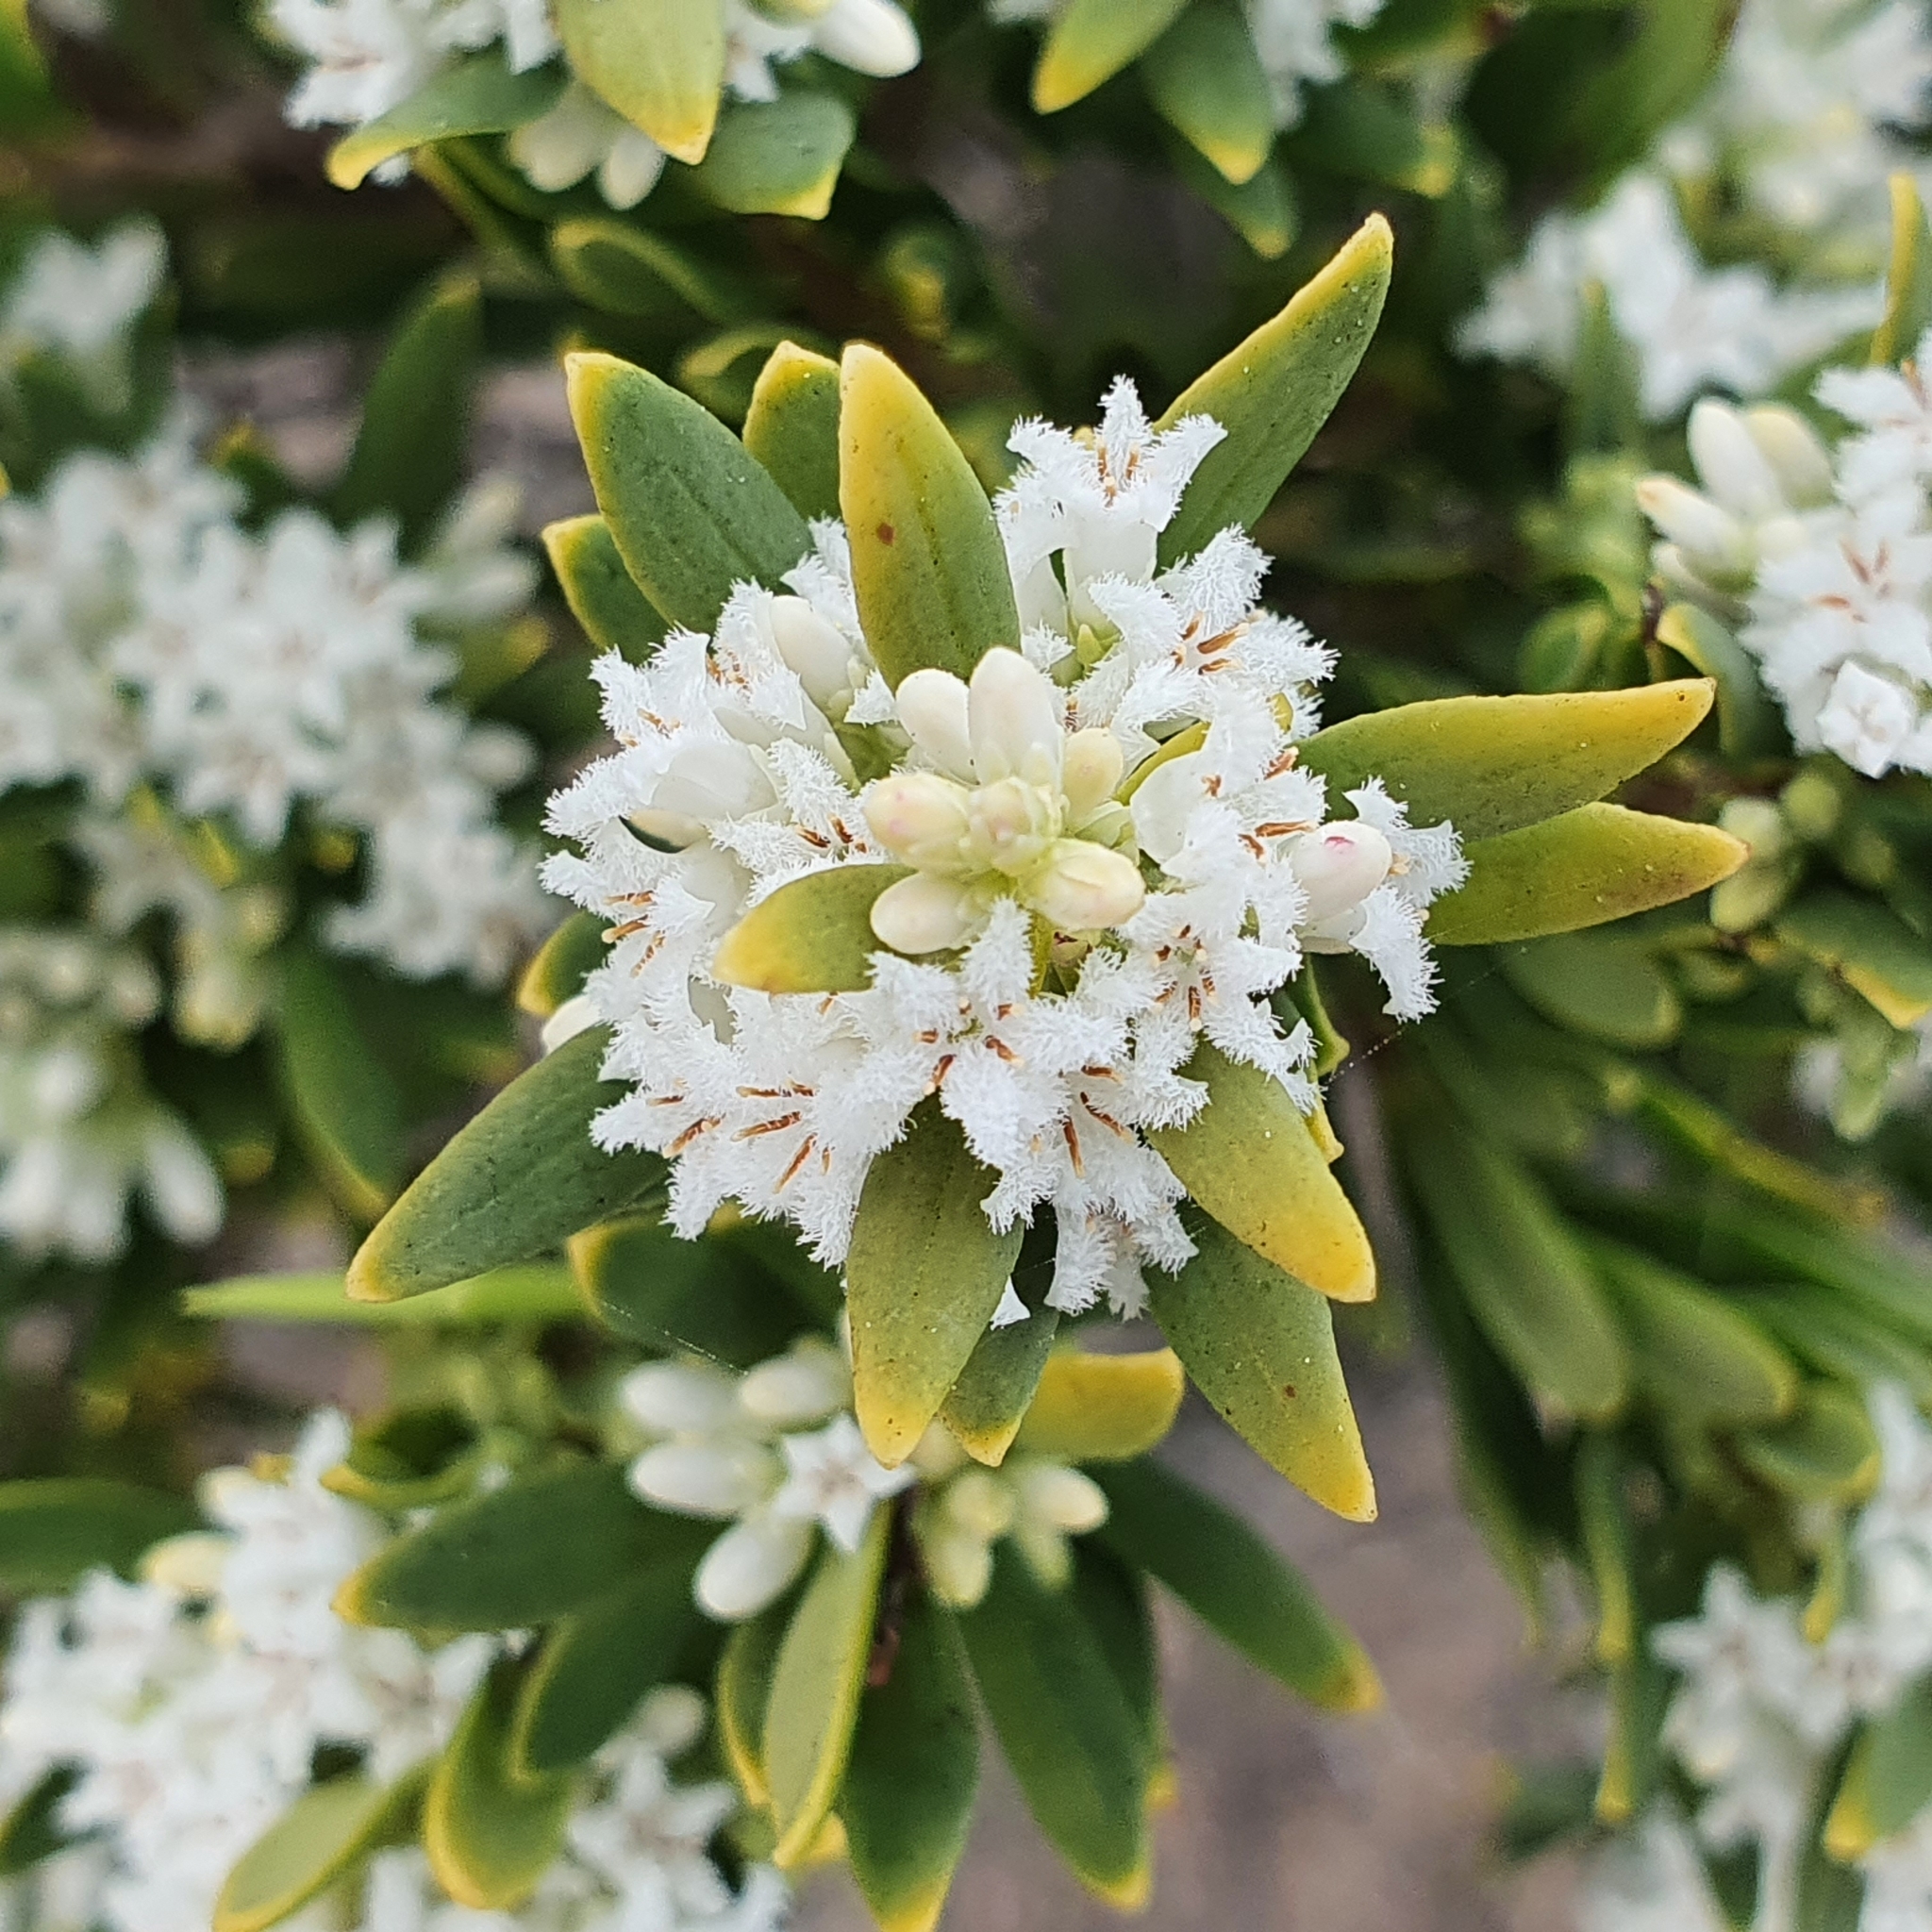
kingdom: Plantae
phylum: Tracheophyta
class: Magnoliopsida
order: Ericales
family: Ericaceae
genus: Leptecophylla
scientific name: Leptecophylla parvifolia
